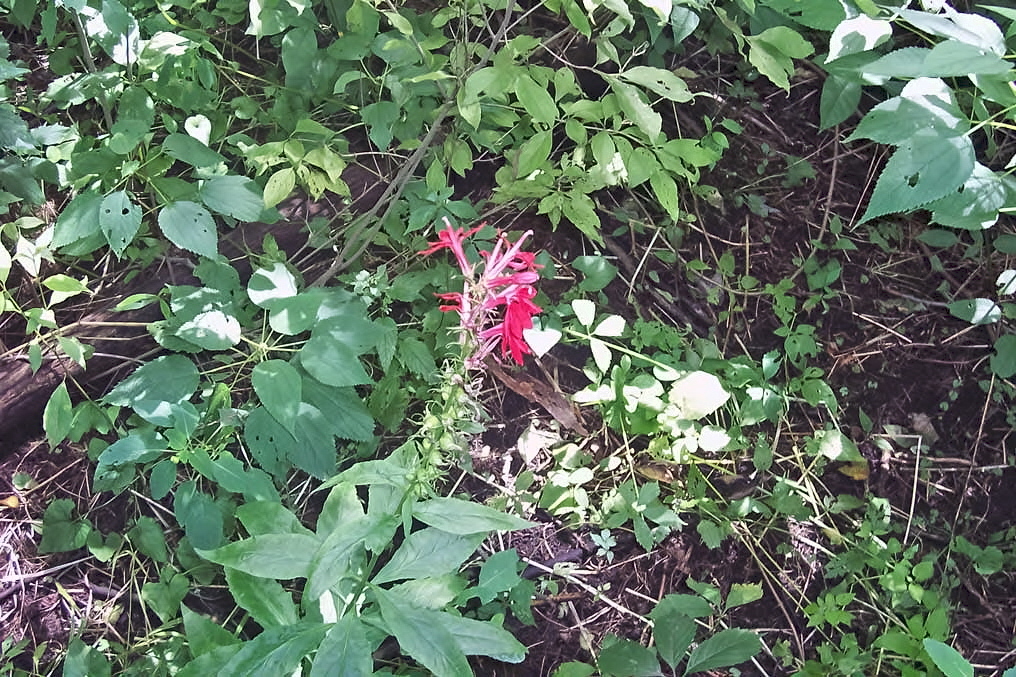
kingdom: Plantae
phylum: Tracheophyta
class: Magnoliopsida
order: Asterales
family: Campanulaceae
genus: Lobelia
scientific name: Lobelia cardinalis
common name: Cardinal flower
